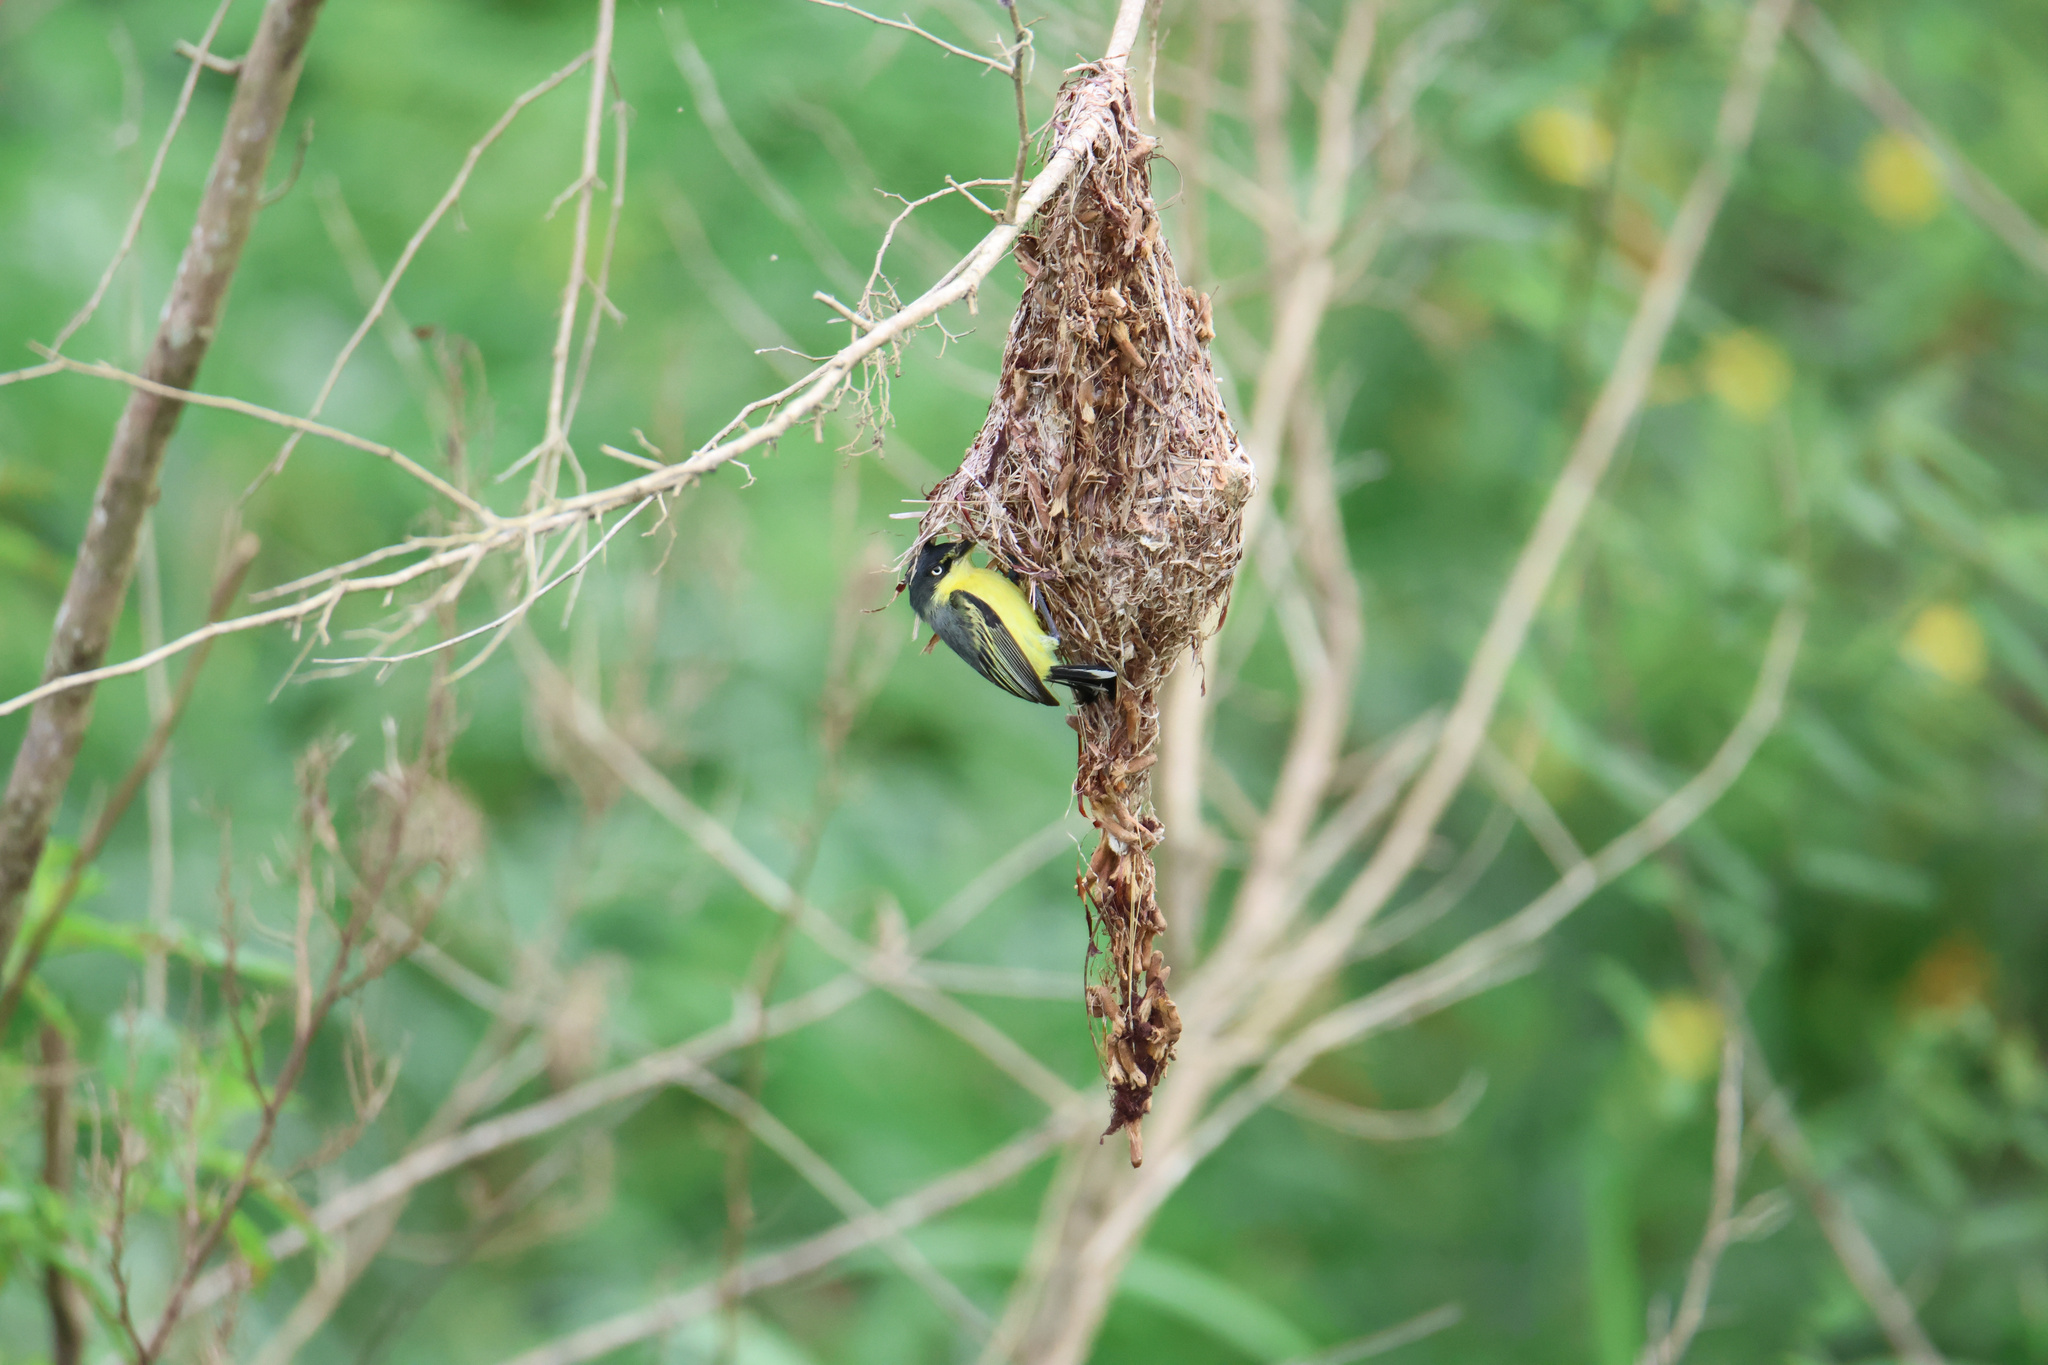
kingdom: Animalia
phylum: Chordata
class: Aves
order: Passeriformes
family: Tyrannidae
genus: Todirostrum
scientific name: Todirostrum cinereum
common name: Common tody-flycatcher
